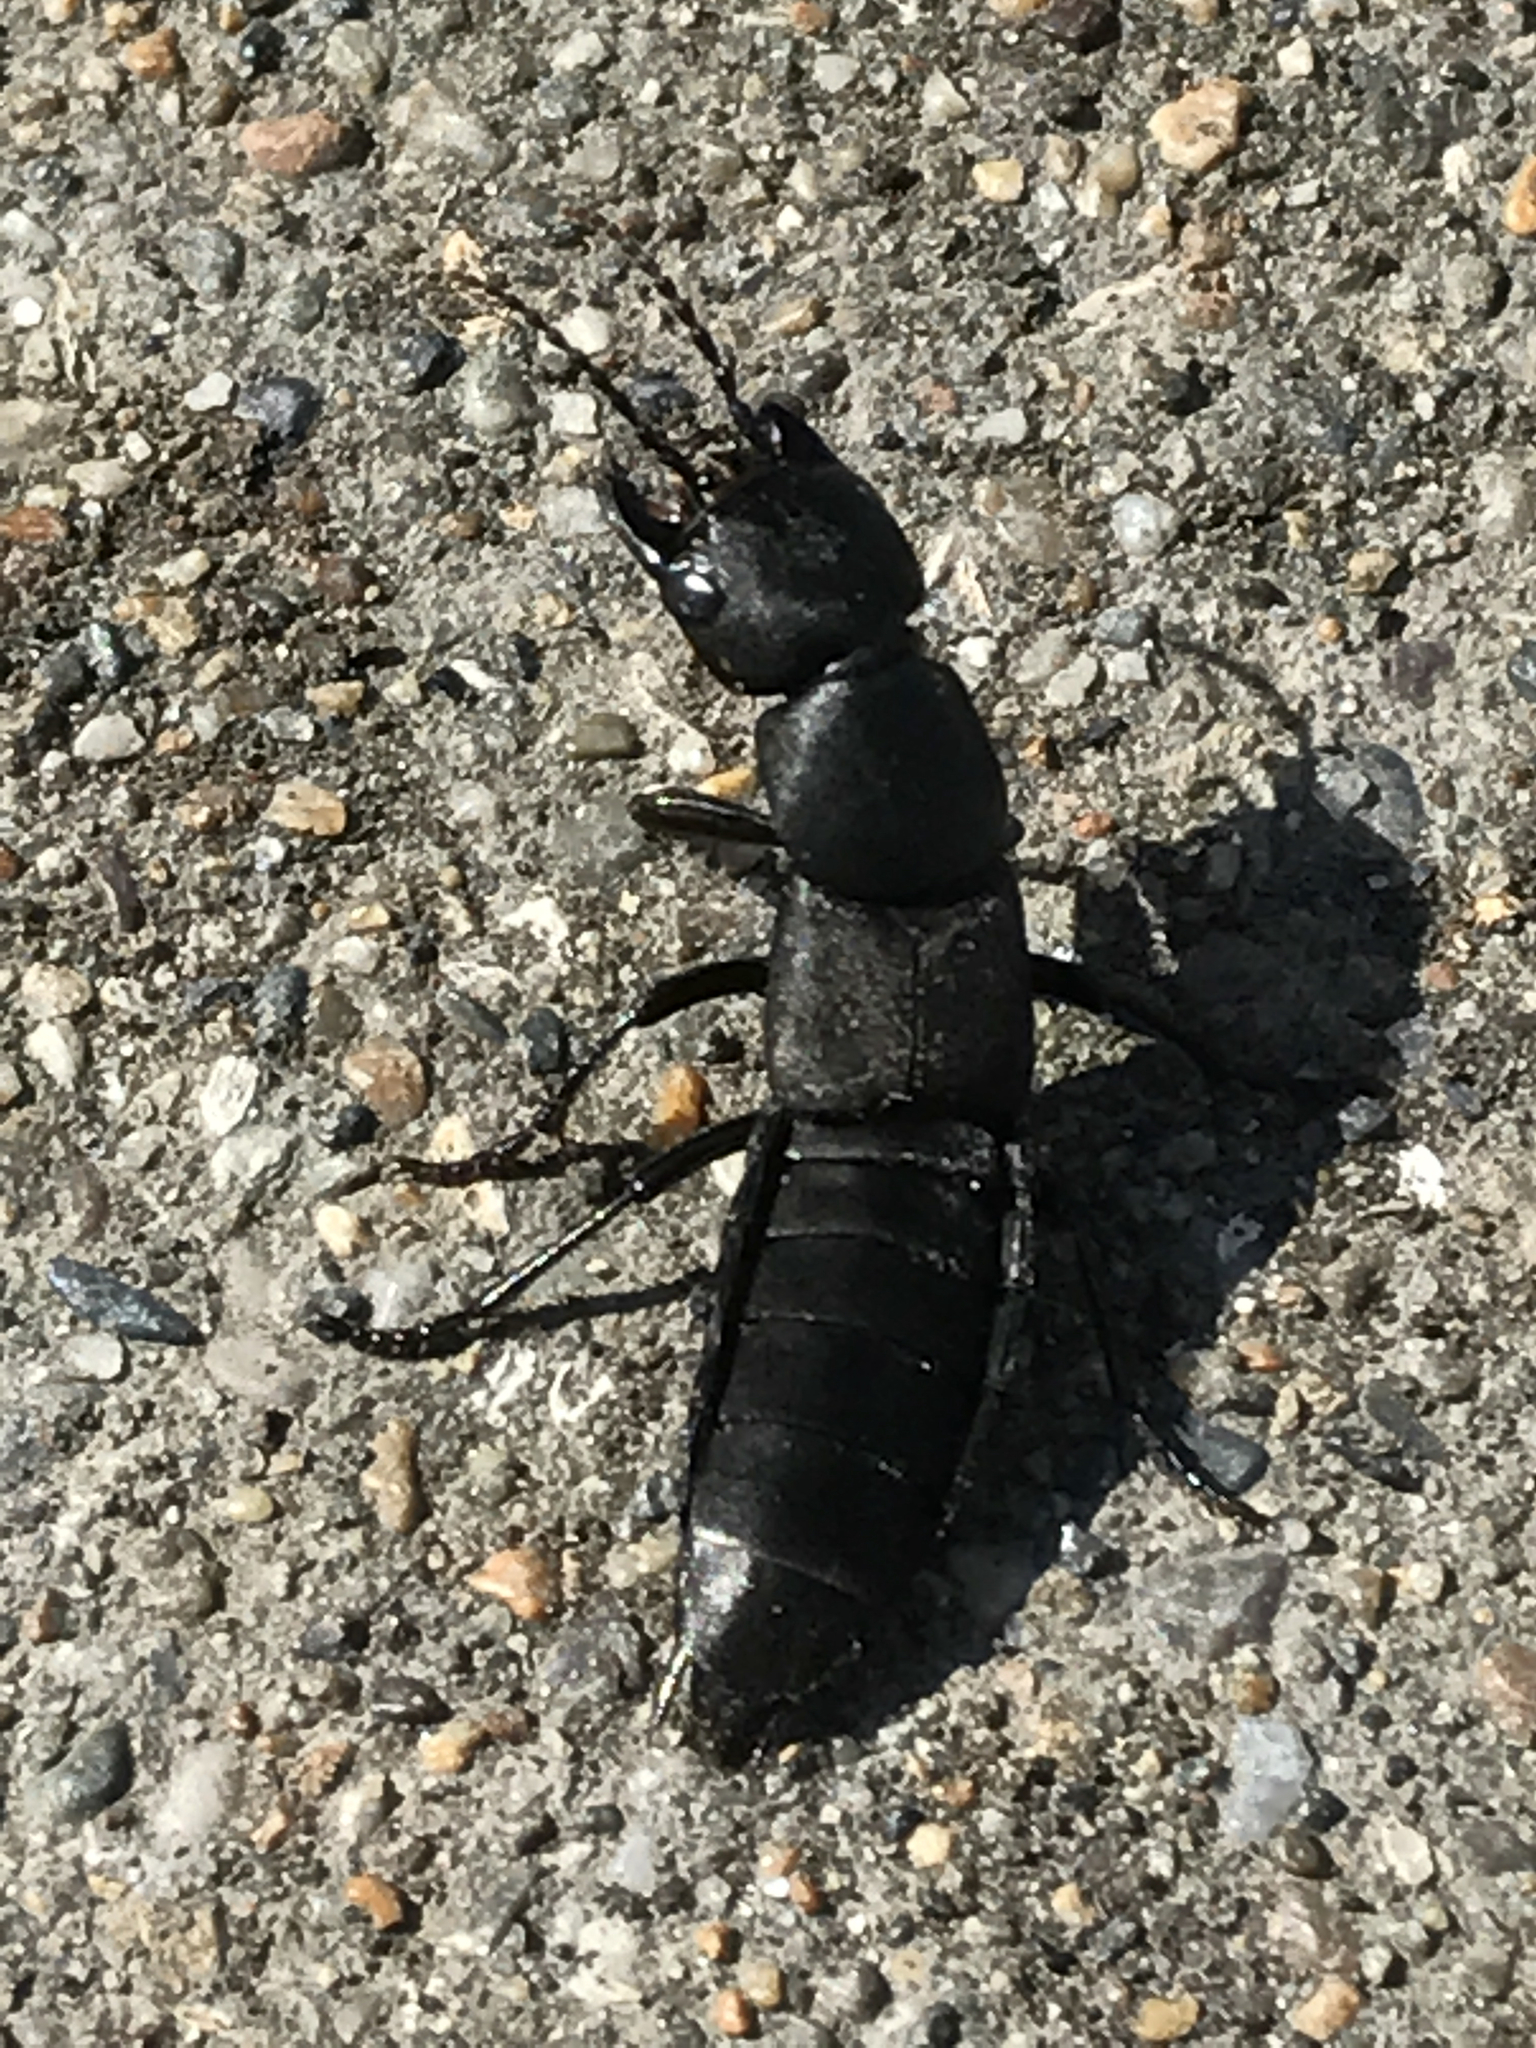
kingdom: Animalia
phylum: Arthropoda
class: Insecta
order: Coleoptera
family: Staphylinidae
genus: Ocypus
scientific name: Ocypus olens
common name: Devil's coach-horse
